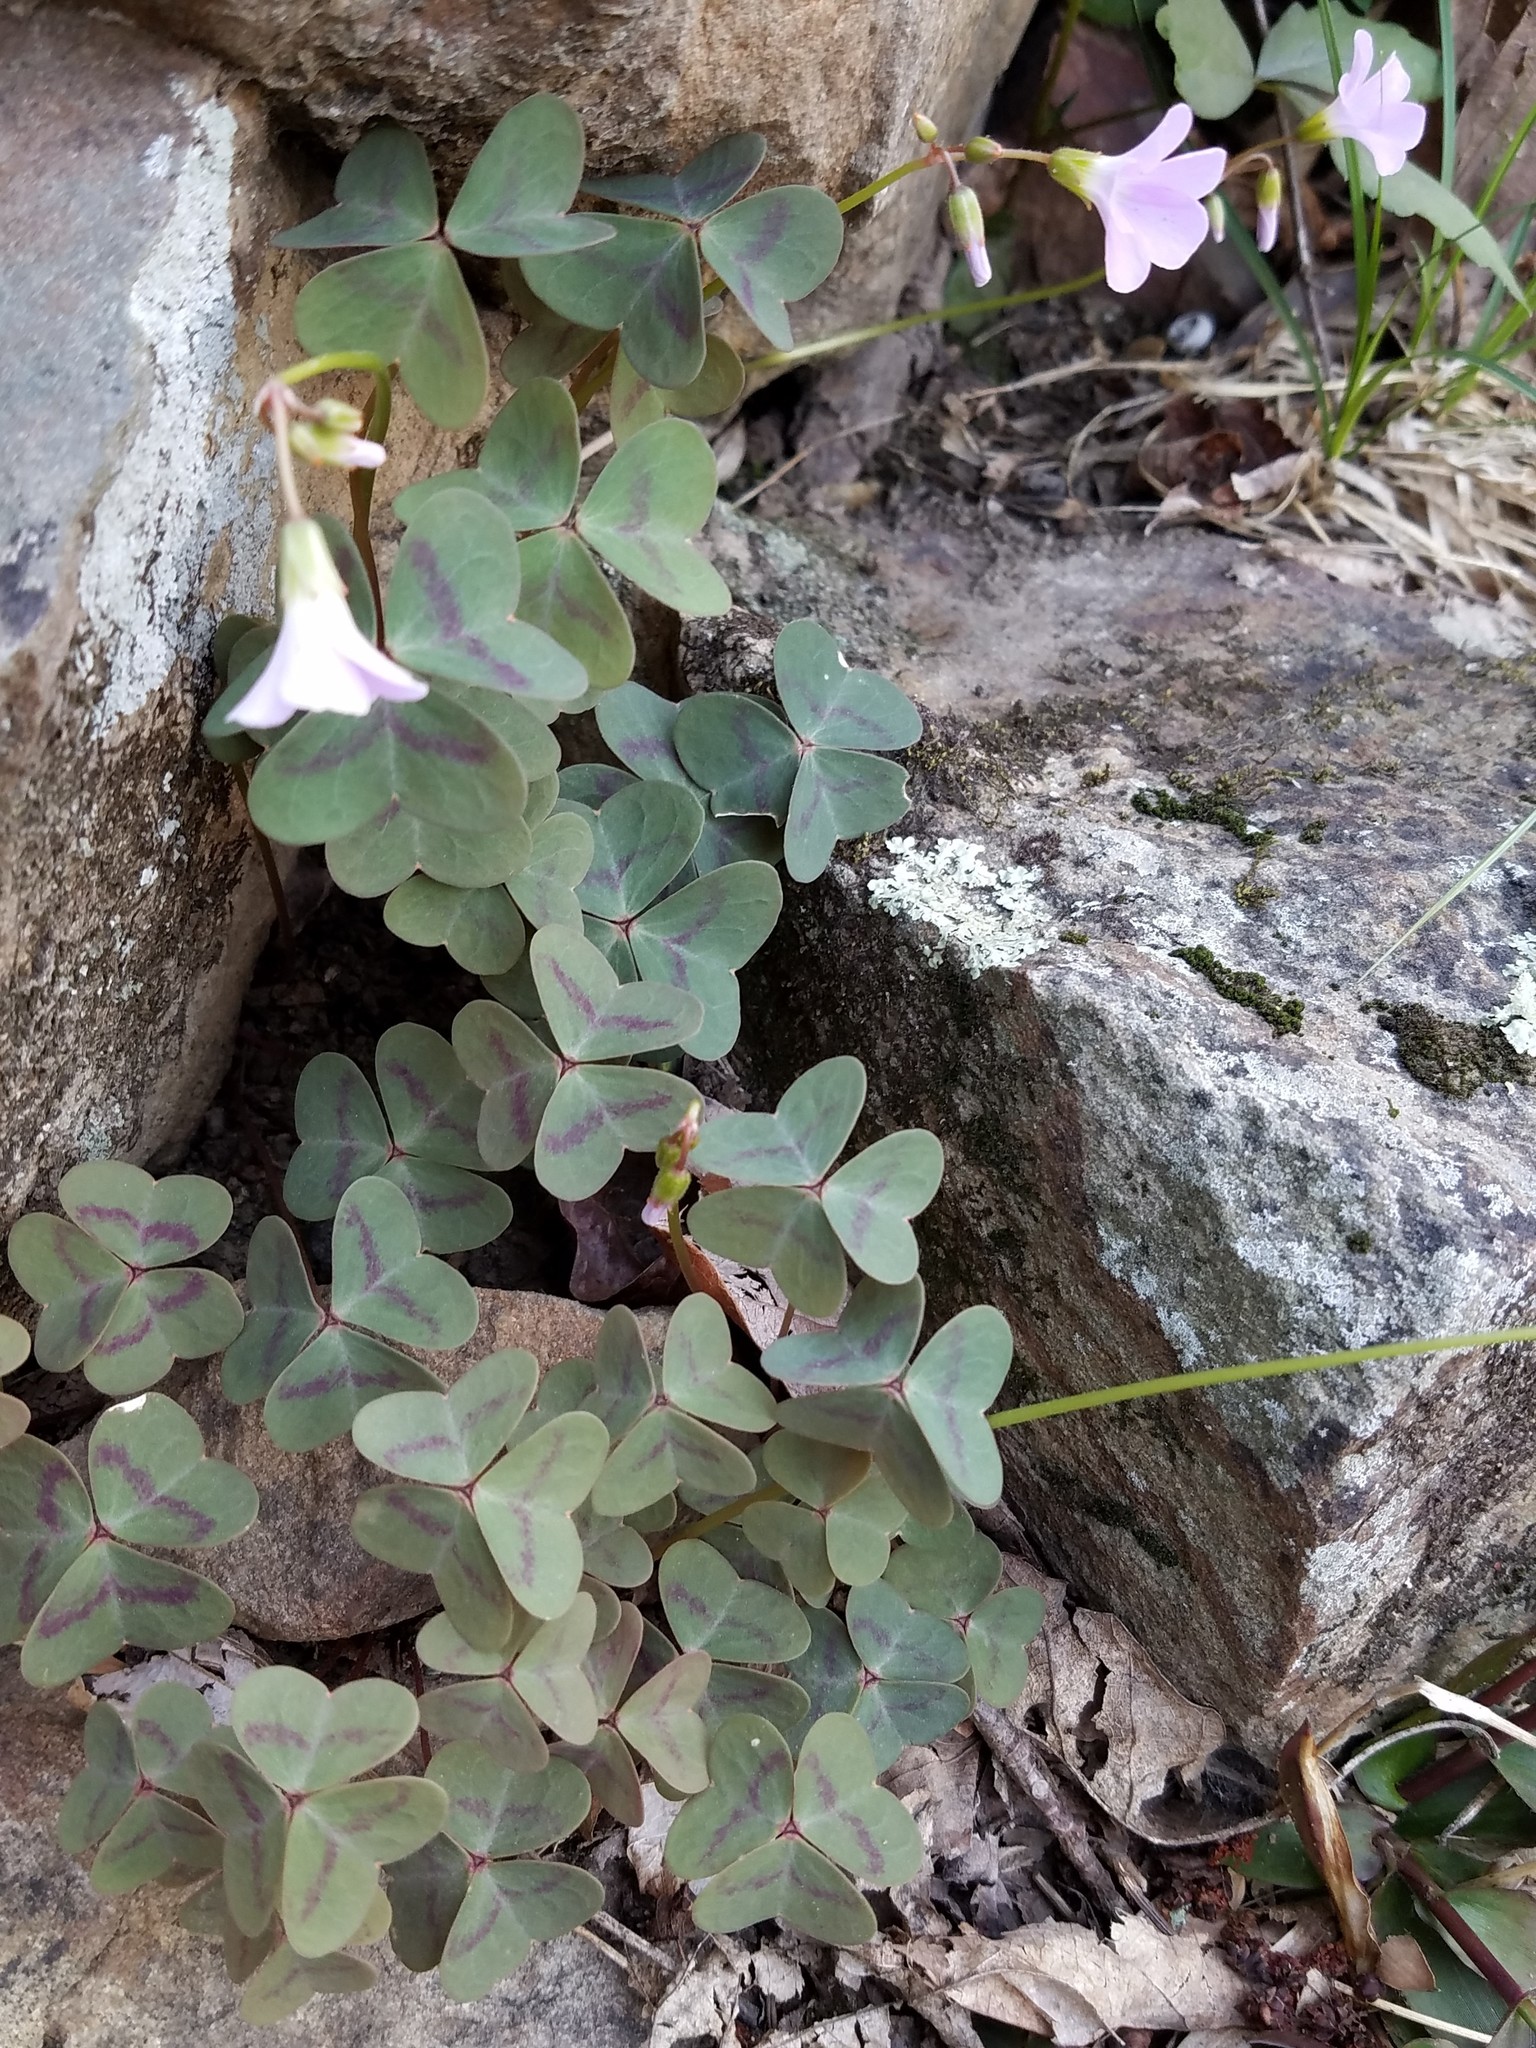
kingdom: Plantae
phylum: Tracheophyta
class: Magnoliopsida
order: Oxalidales
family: Oxalidaceae
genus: Oxalis
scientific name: Oxalis violacea
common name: Violet wood-sorrel
